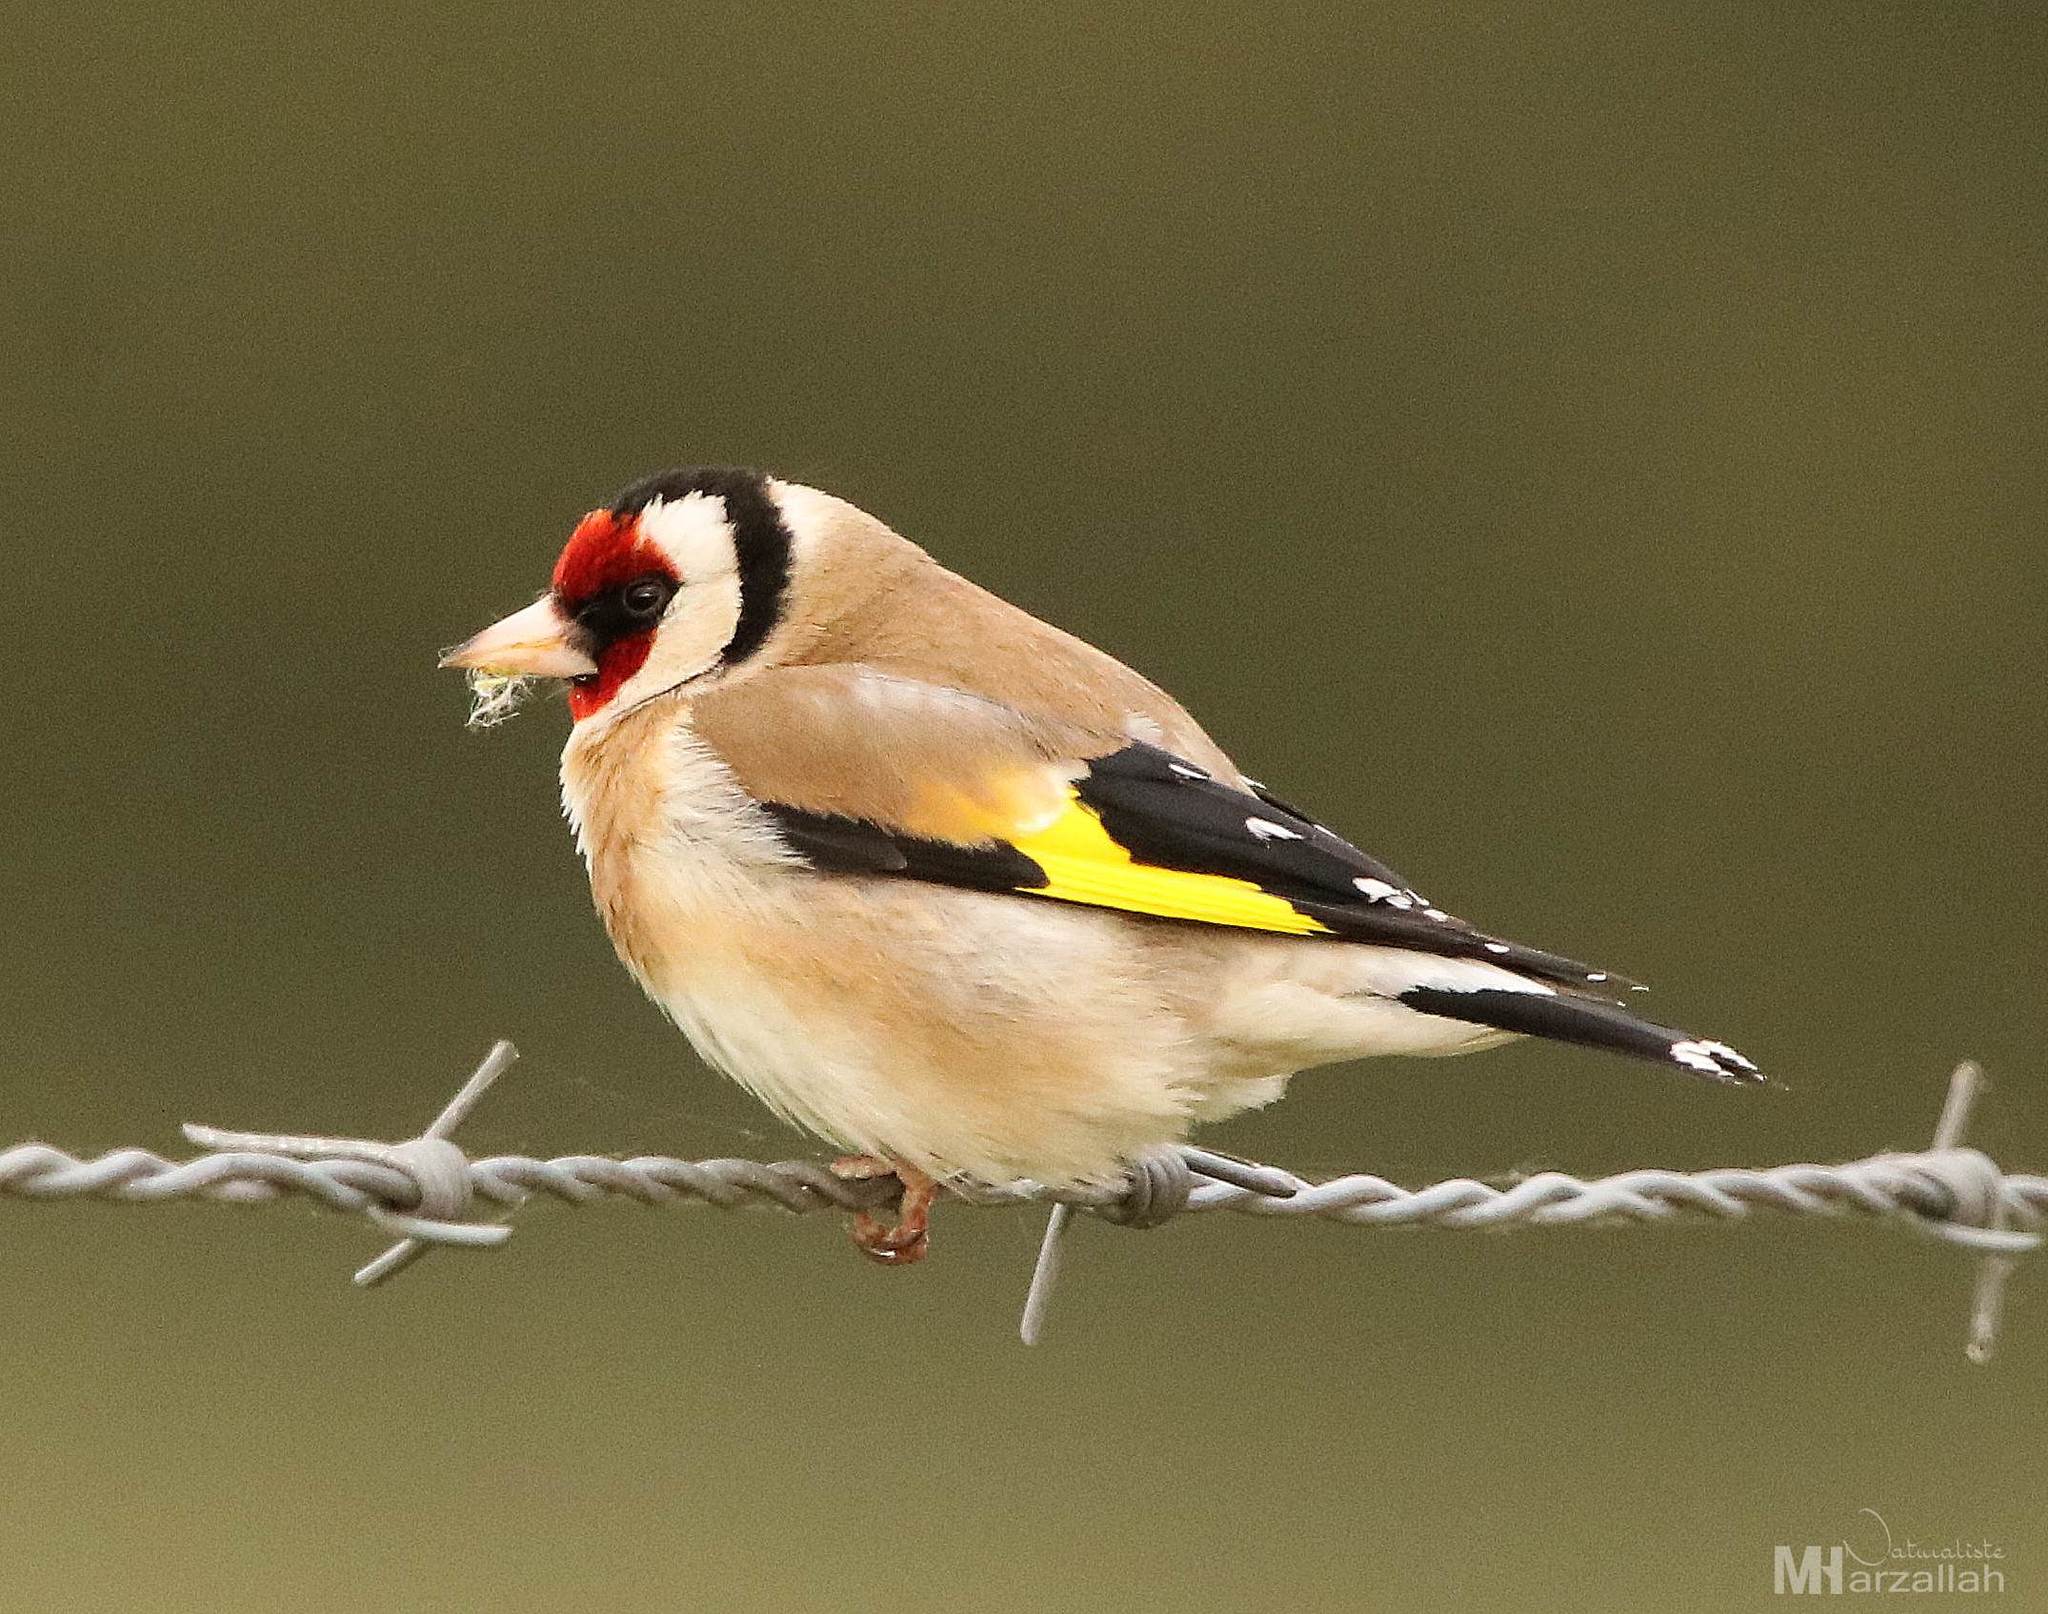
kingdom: Animalia
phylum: Chordata
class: Aves
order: Passeriformes
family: Fringillidae
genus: Carduelis
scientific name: Carduelis carduelis
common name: European goldfinch
